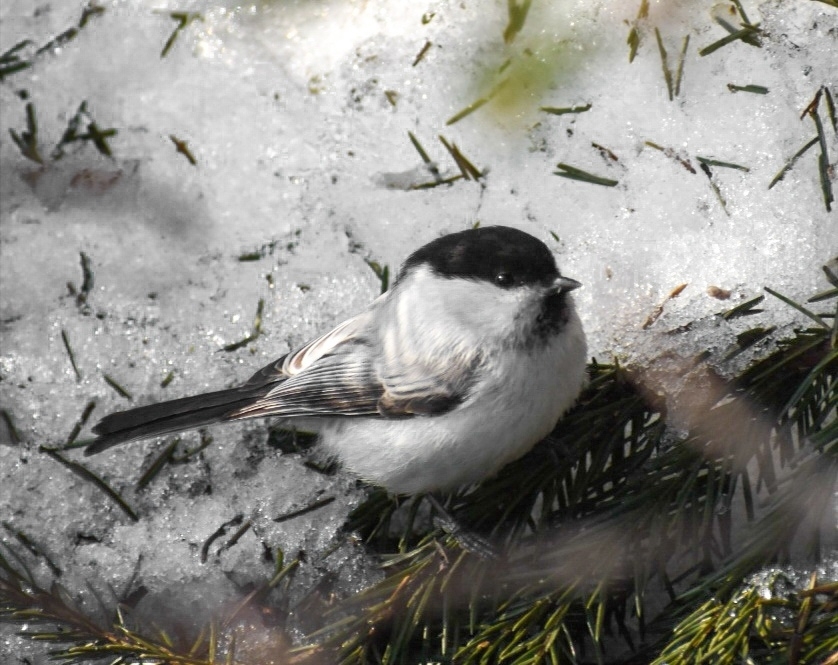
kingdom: Animalia
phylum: Chordata
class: Aves
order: Passeriformes
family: Paridae
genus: Poecile
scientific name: Poecile montanus
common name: Willow tit
